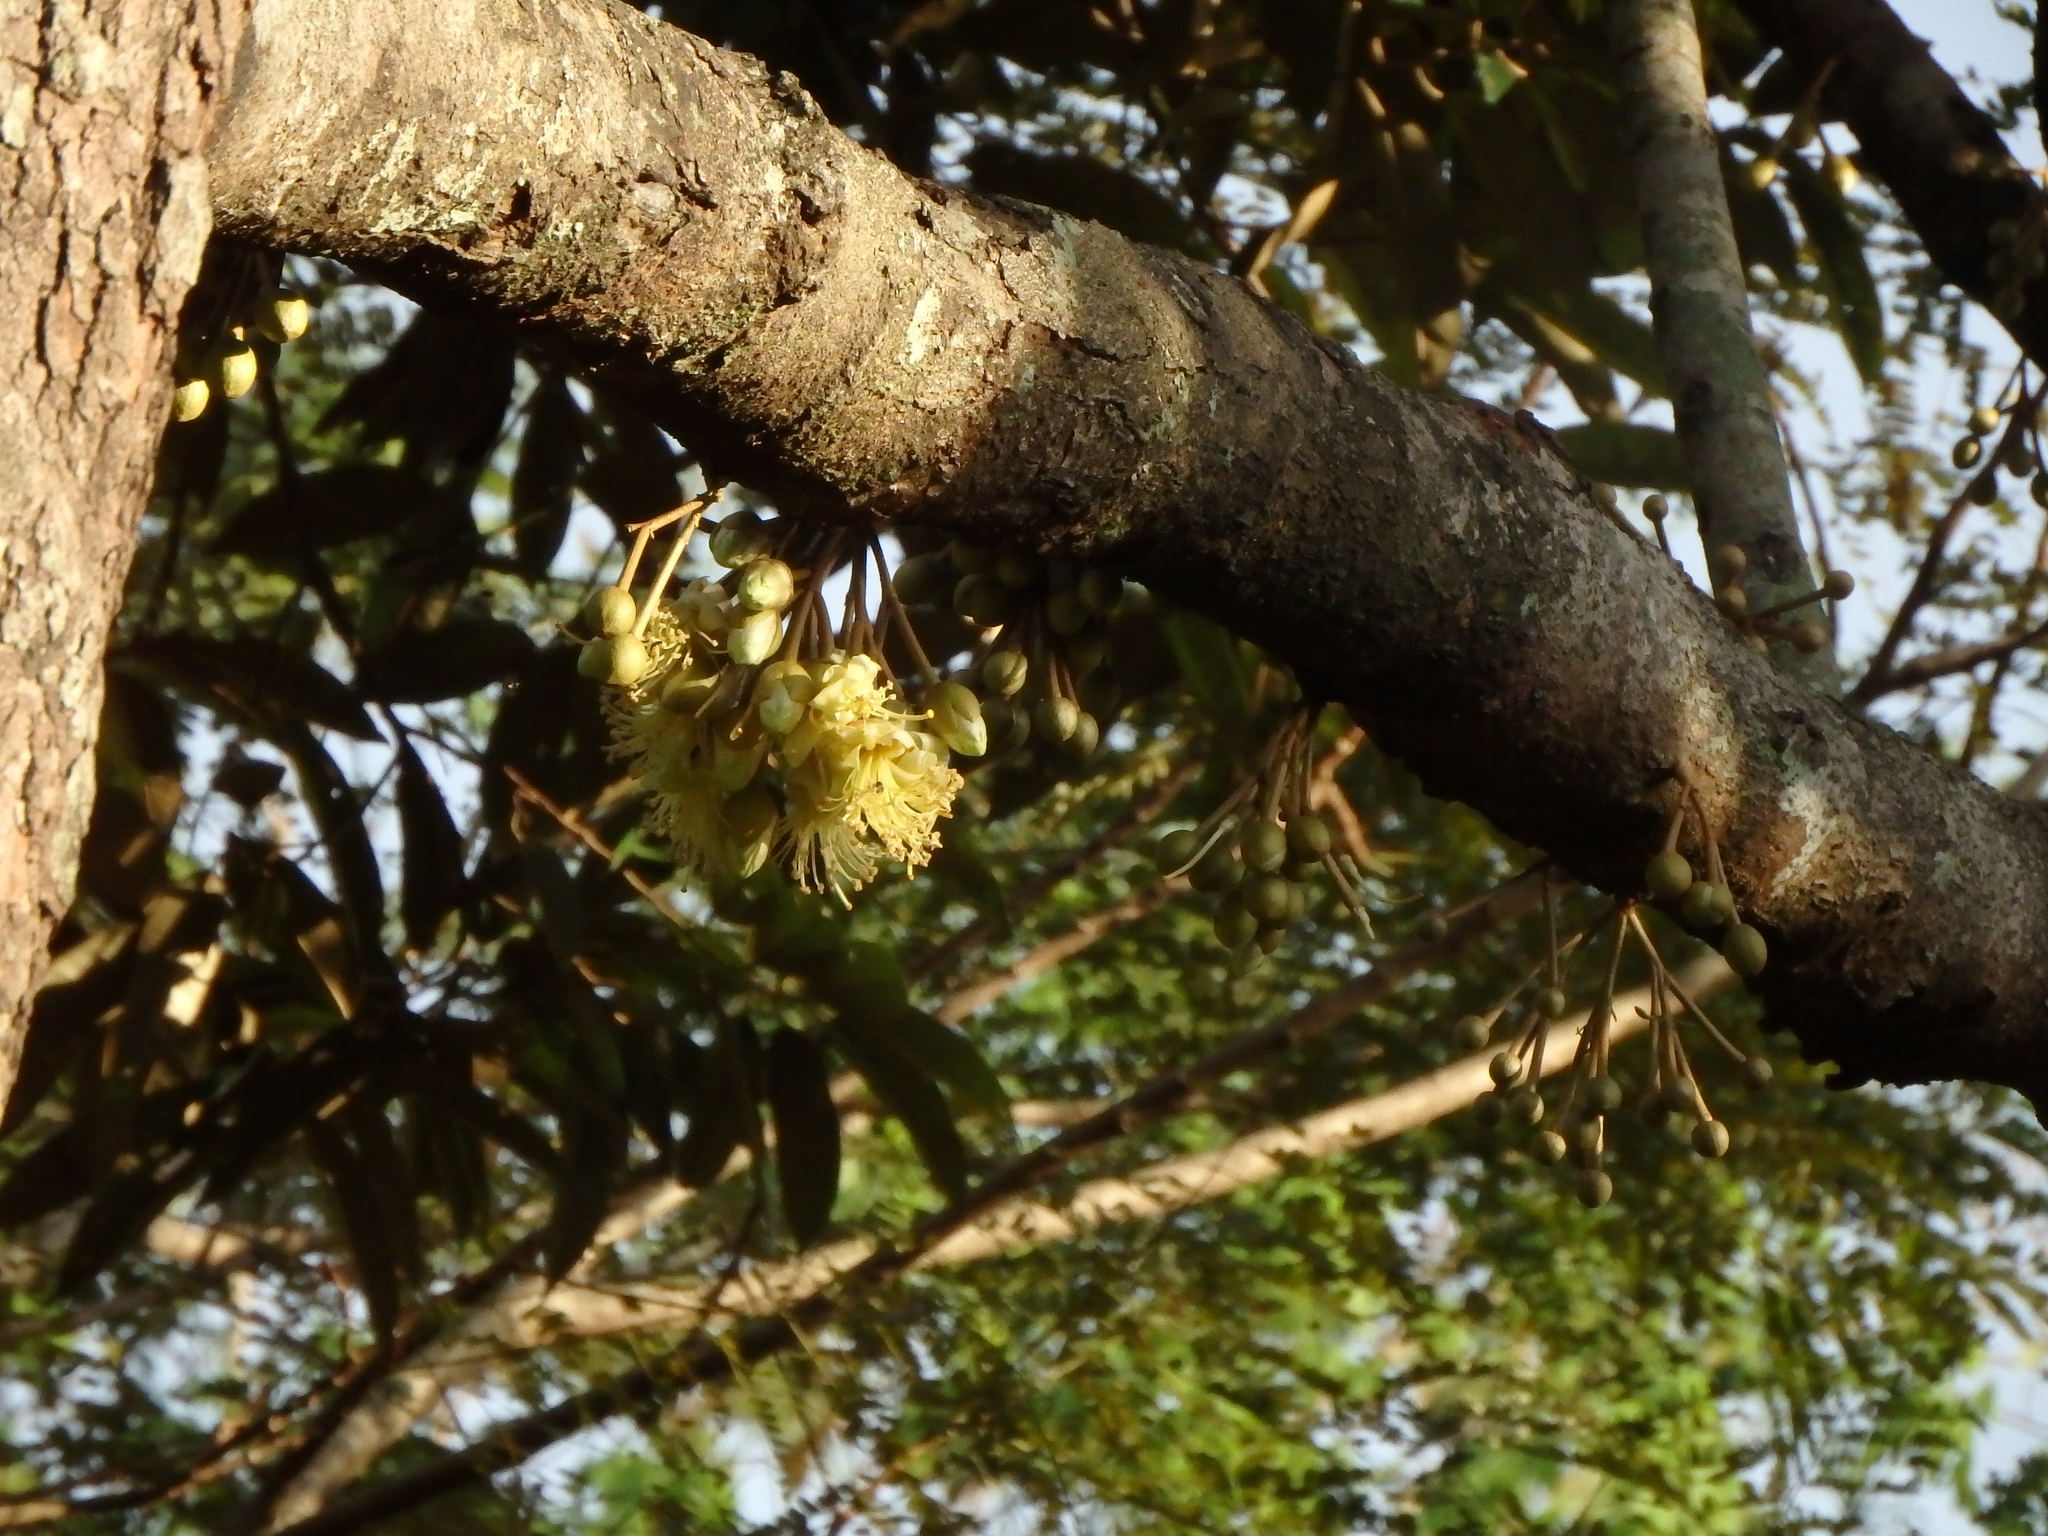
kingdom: Plantae
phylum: Tracheophyta
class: Magnoliopsida
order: Malvales
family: Malvaceae
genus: Durio
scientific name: Durio zibethinus
